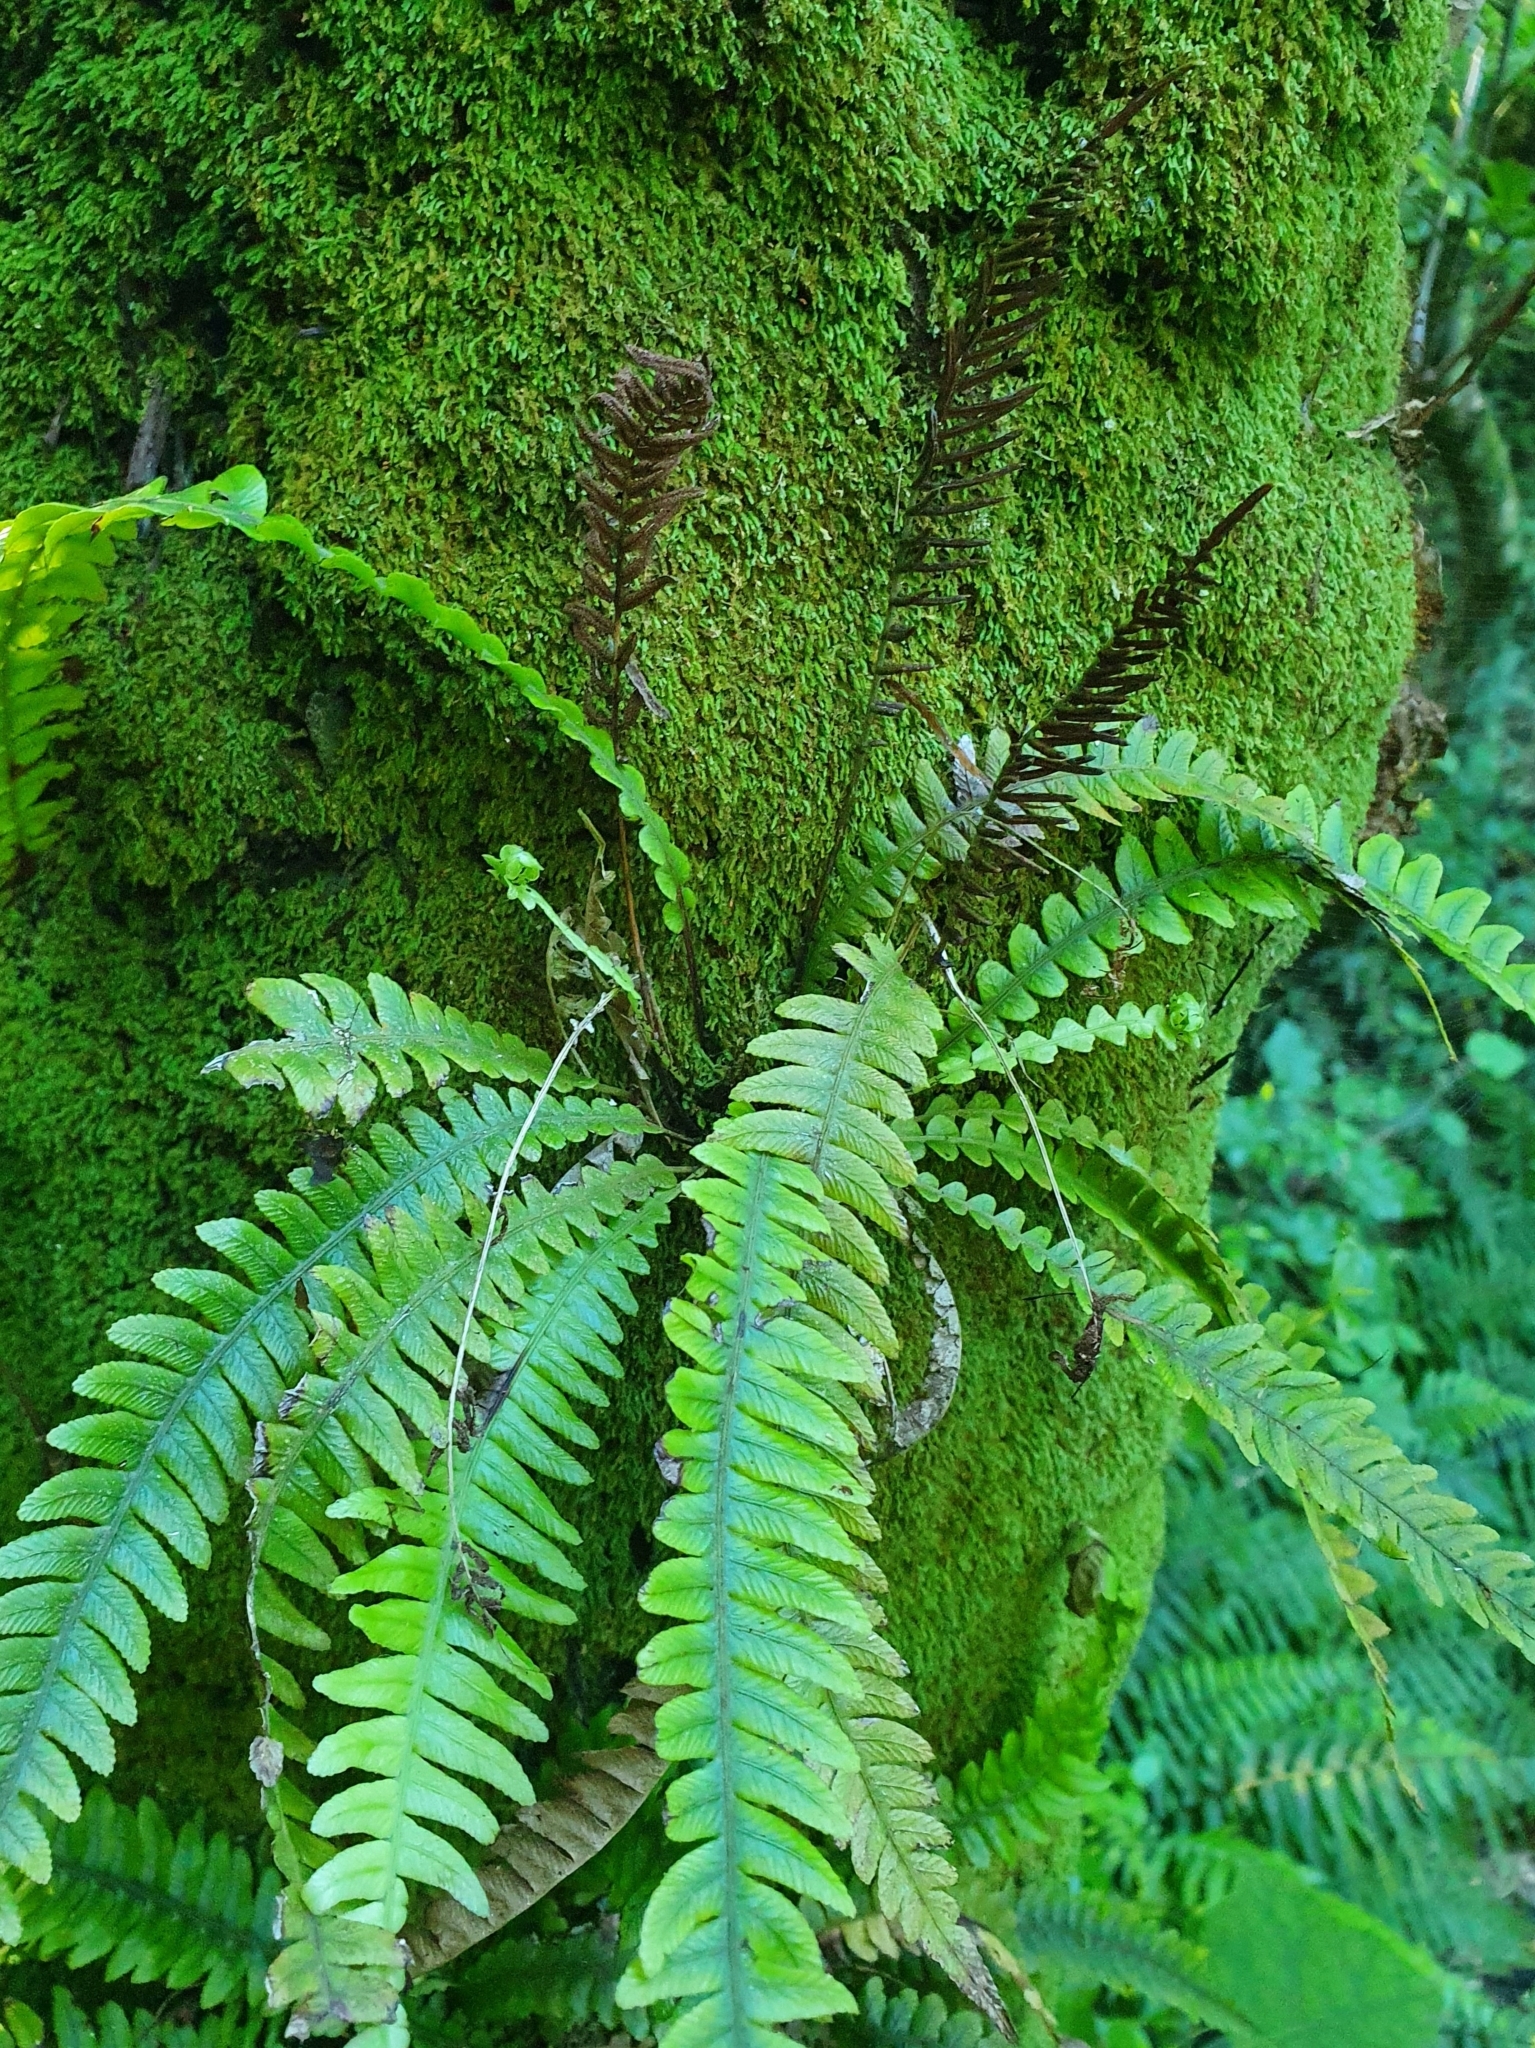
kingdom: Plantae
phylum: Tracheophyta
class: Polypodiopsida
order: Polypodiales
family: Blechnaceae
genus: Austroblechnum
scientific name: Austroblechnum lanceolatum
